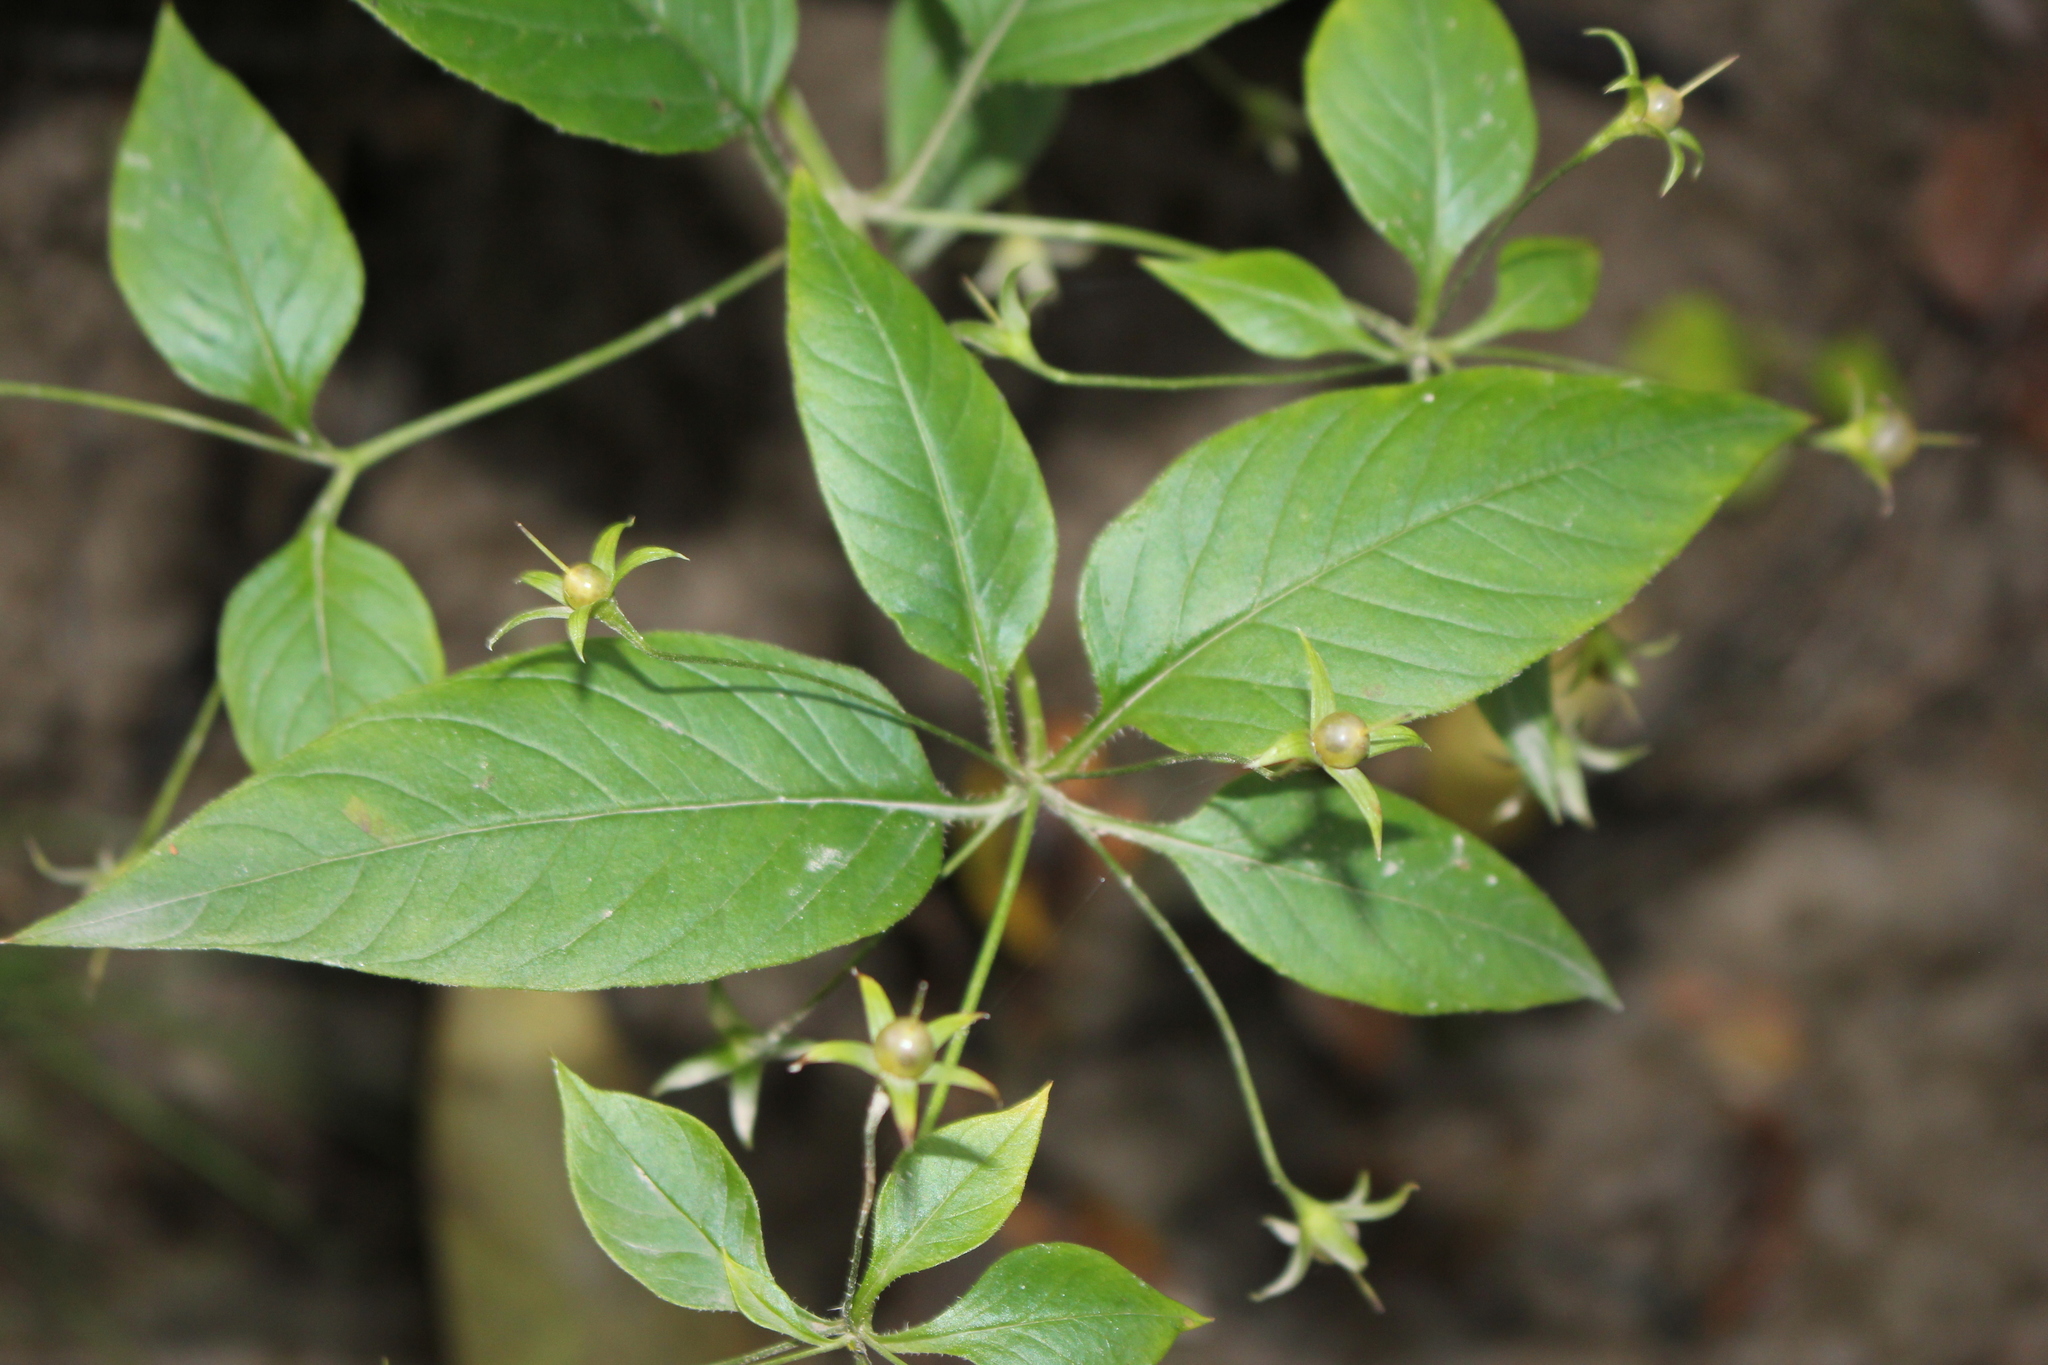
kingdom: Plantae
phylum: Tracheophyta
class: Magnoliopsida
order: Ericales
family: Primulaceae
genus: Lysimachia
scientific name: Lysimachia ciliata
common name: Fringed loosestrife
